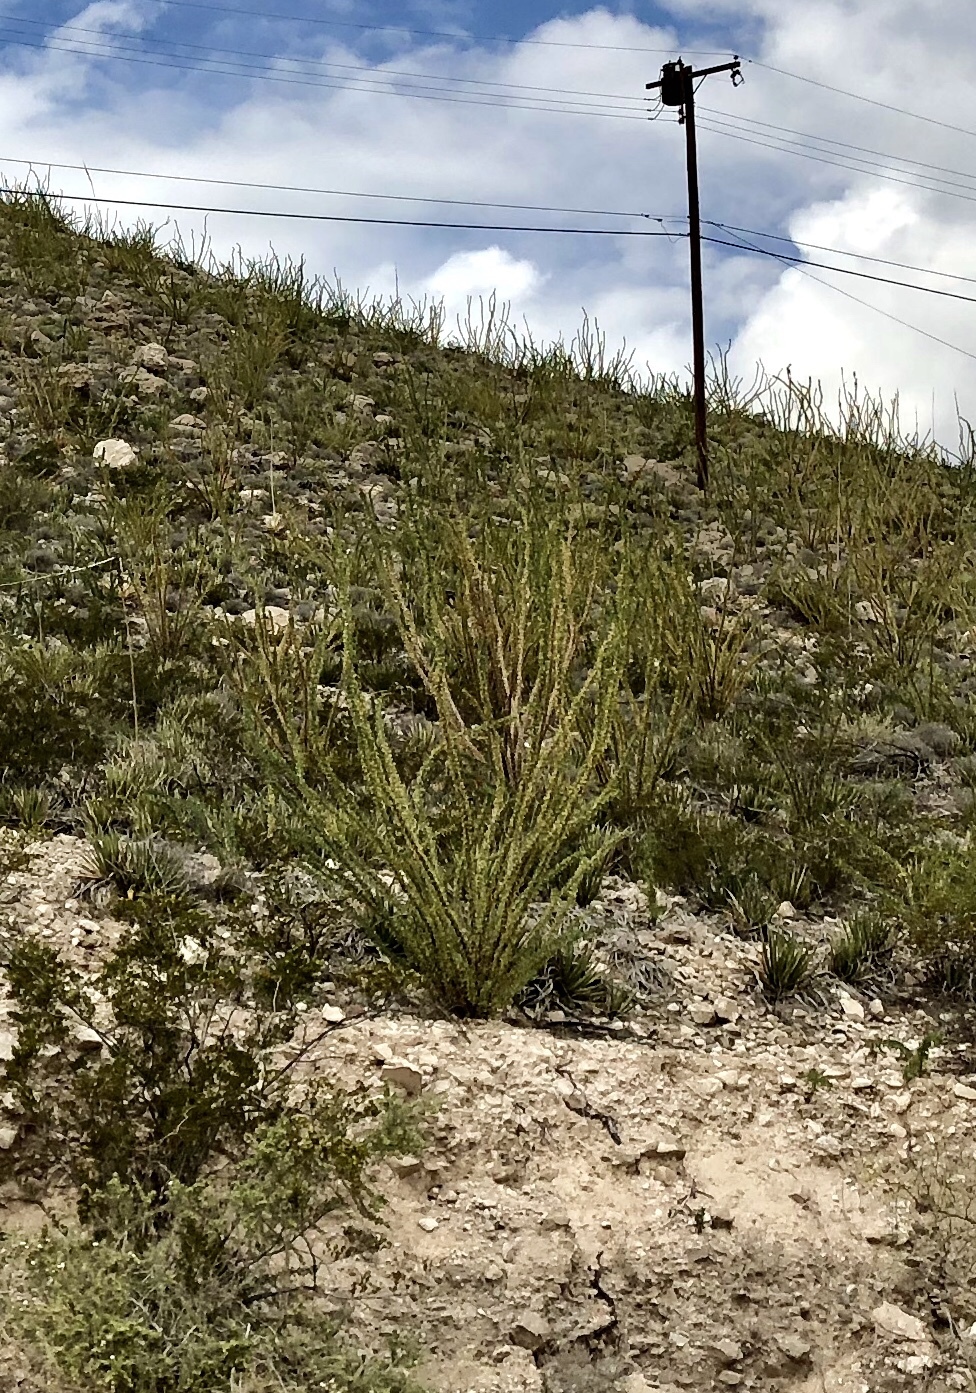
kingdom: Plantae
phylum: Tracheophyta
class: Magnoliopsida
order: Ericales
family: Fouquieriaceae
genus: Fouquieria
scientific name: Fouquieria splendens
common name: Vine-cactus
